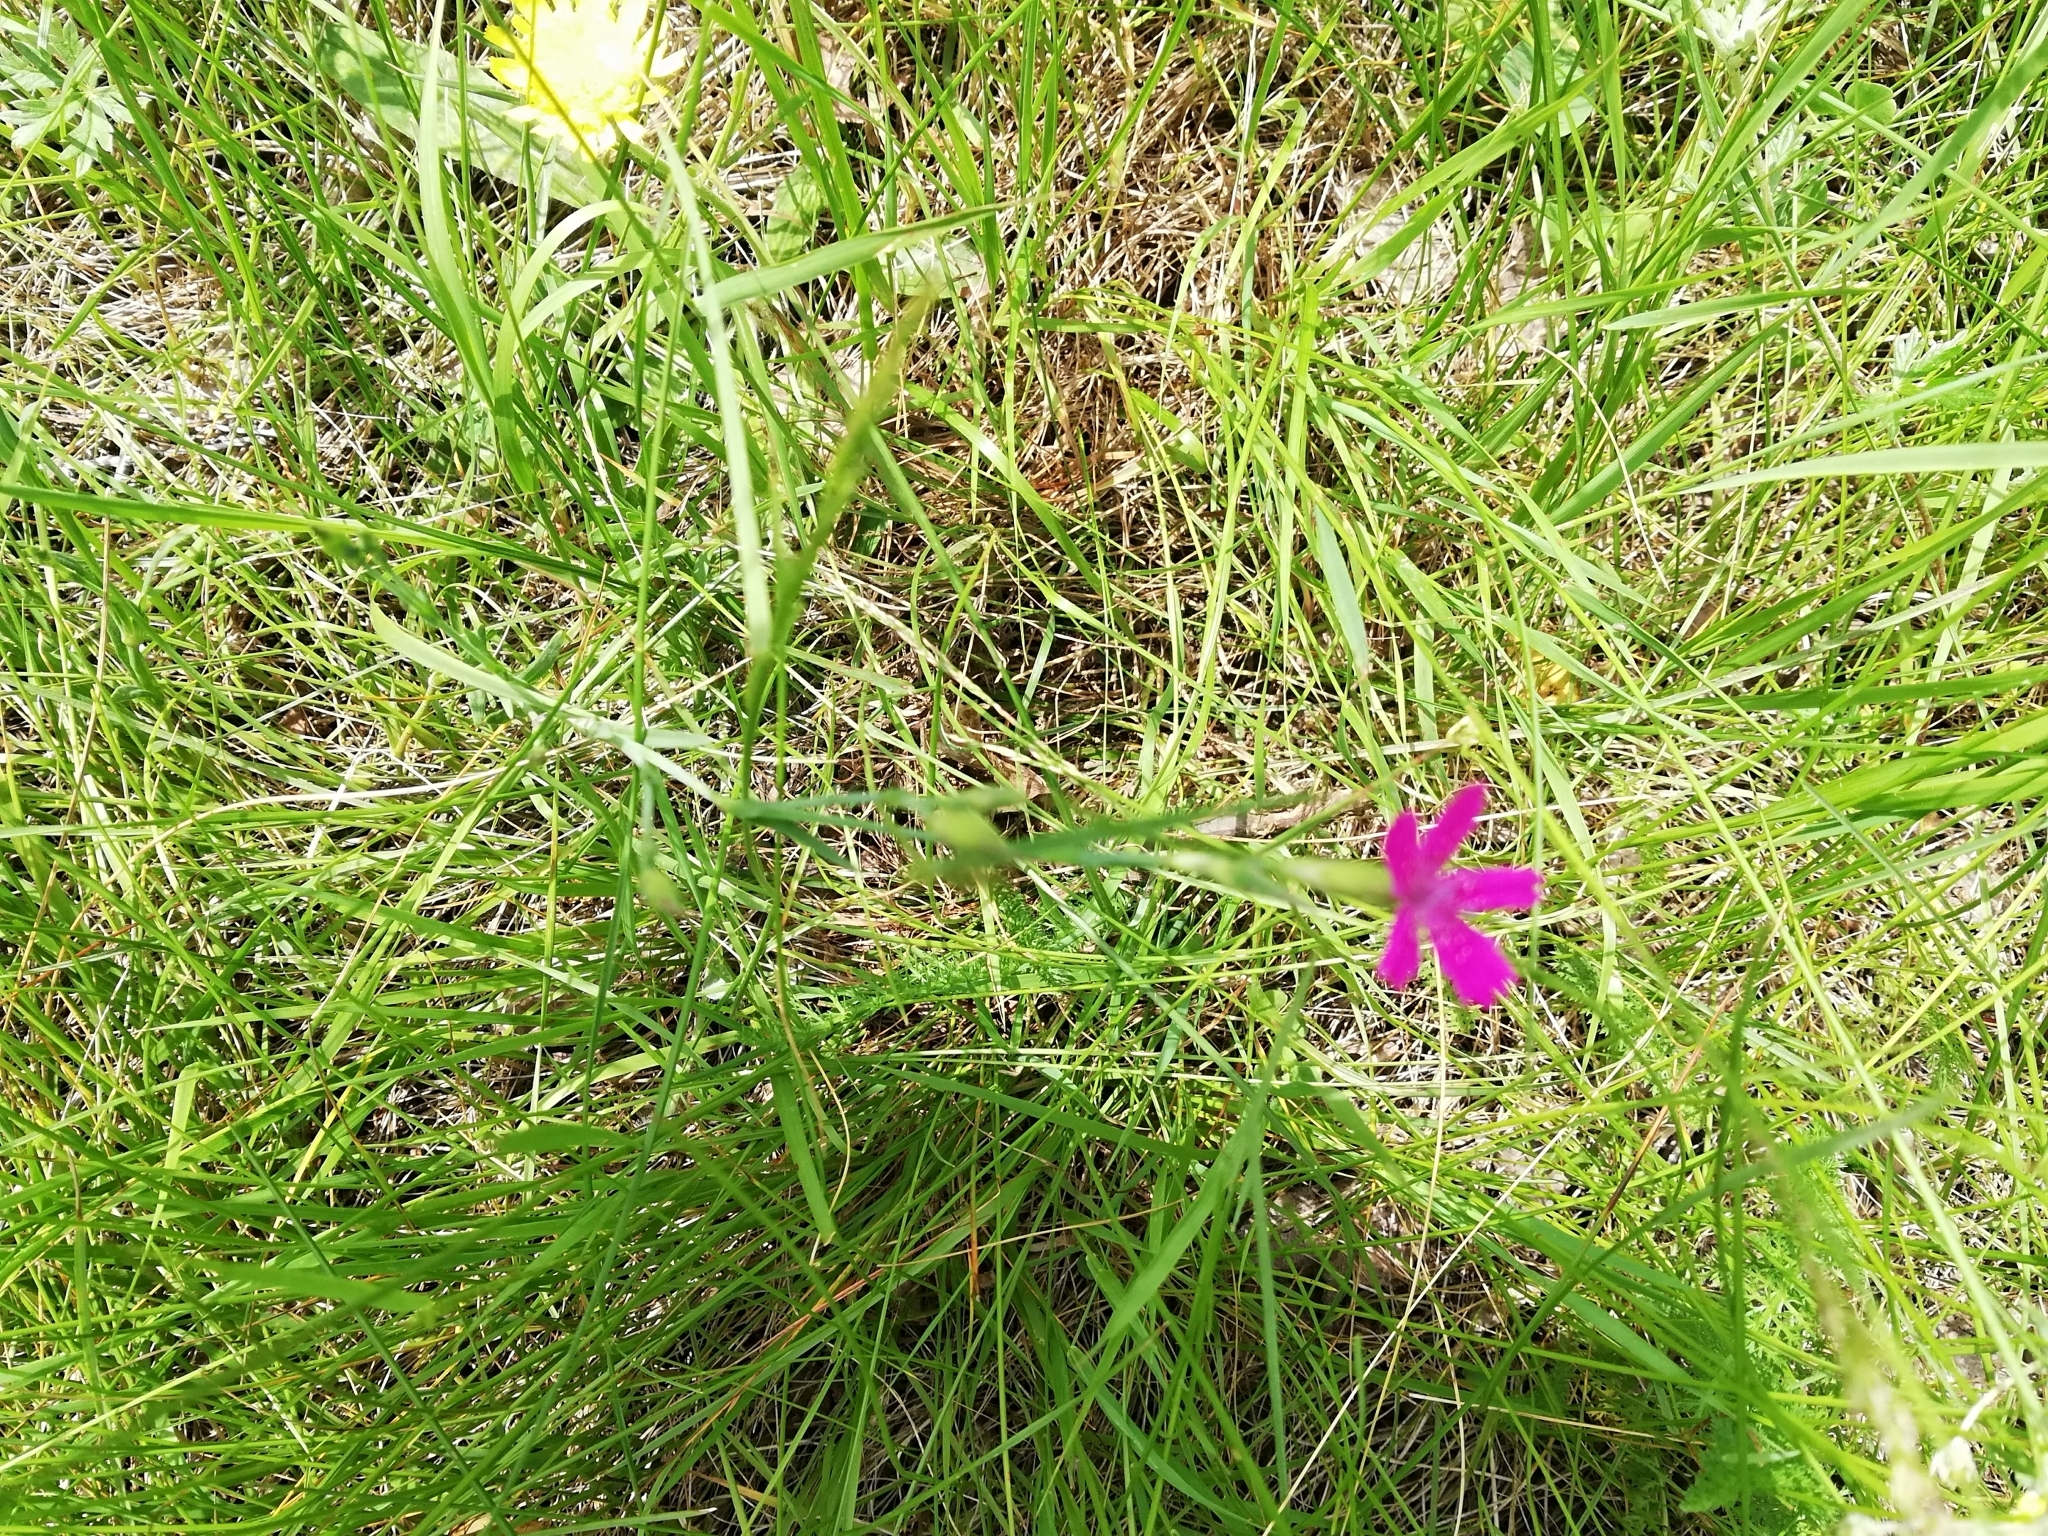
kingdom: Plantae
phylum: Tracheophyta
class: Magnoliopsida
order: Caryophyllales
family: Caryophyllaceae
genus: Dianthus
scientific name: Dianthus deltoides
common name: Maiden pink
